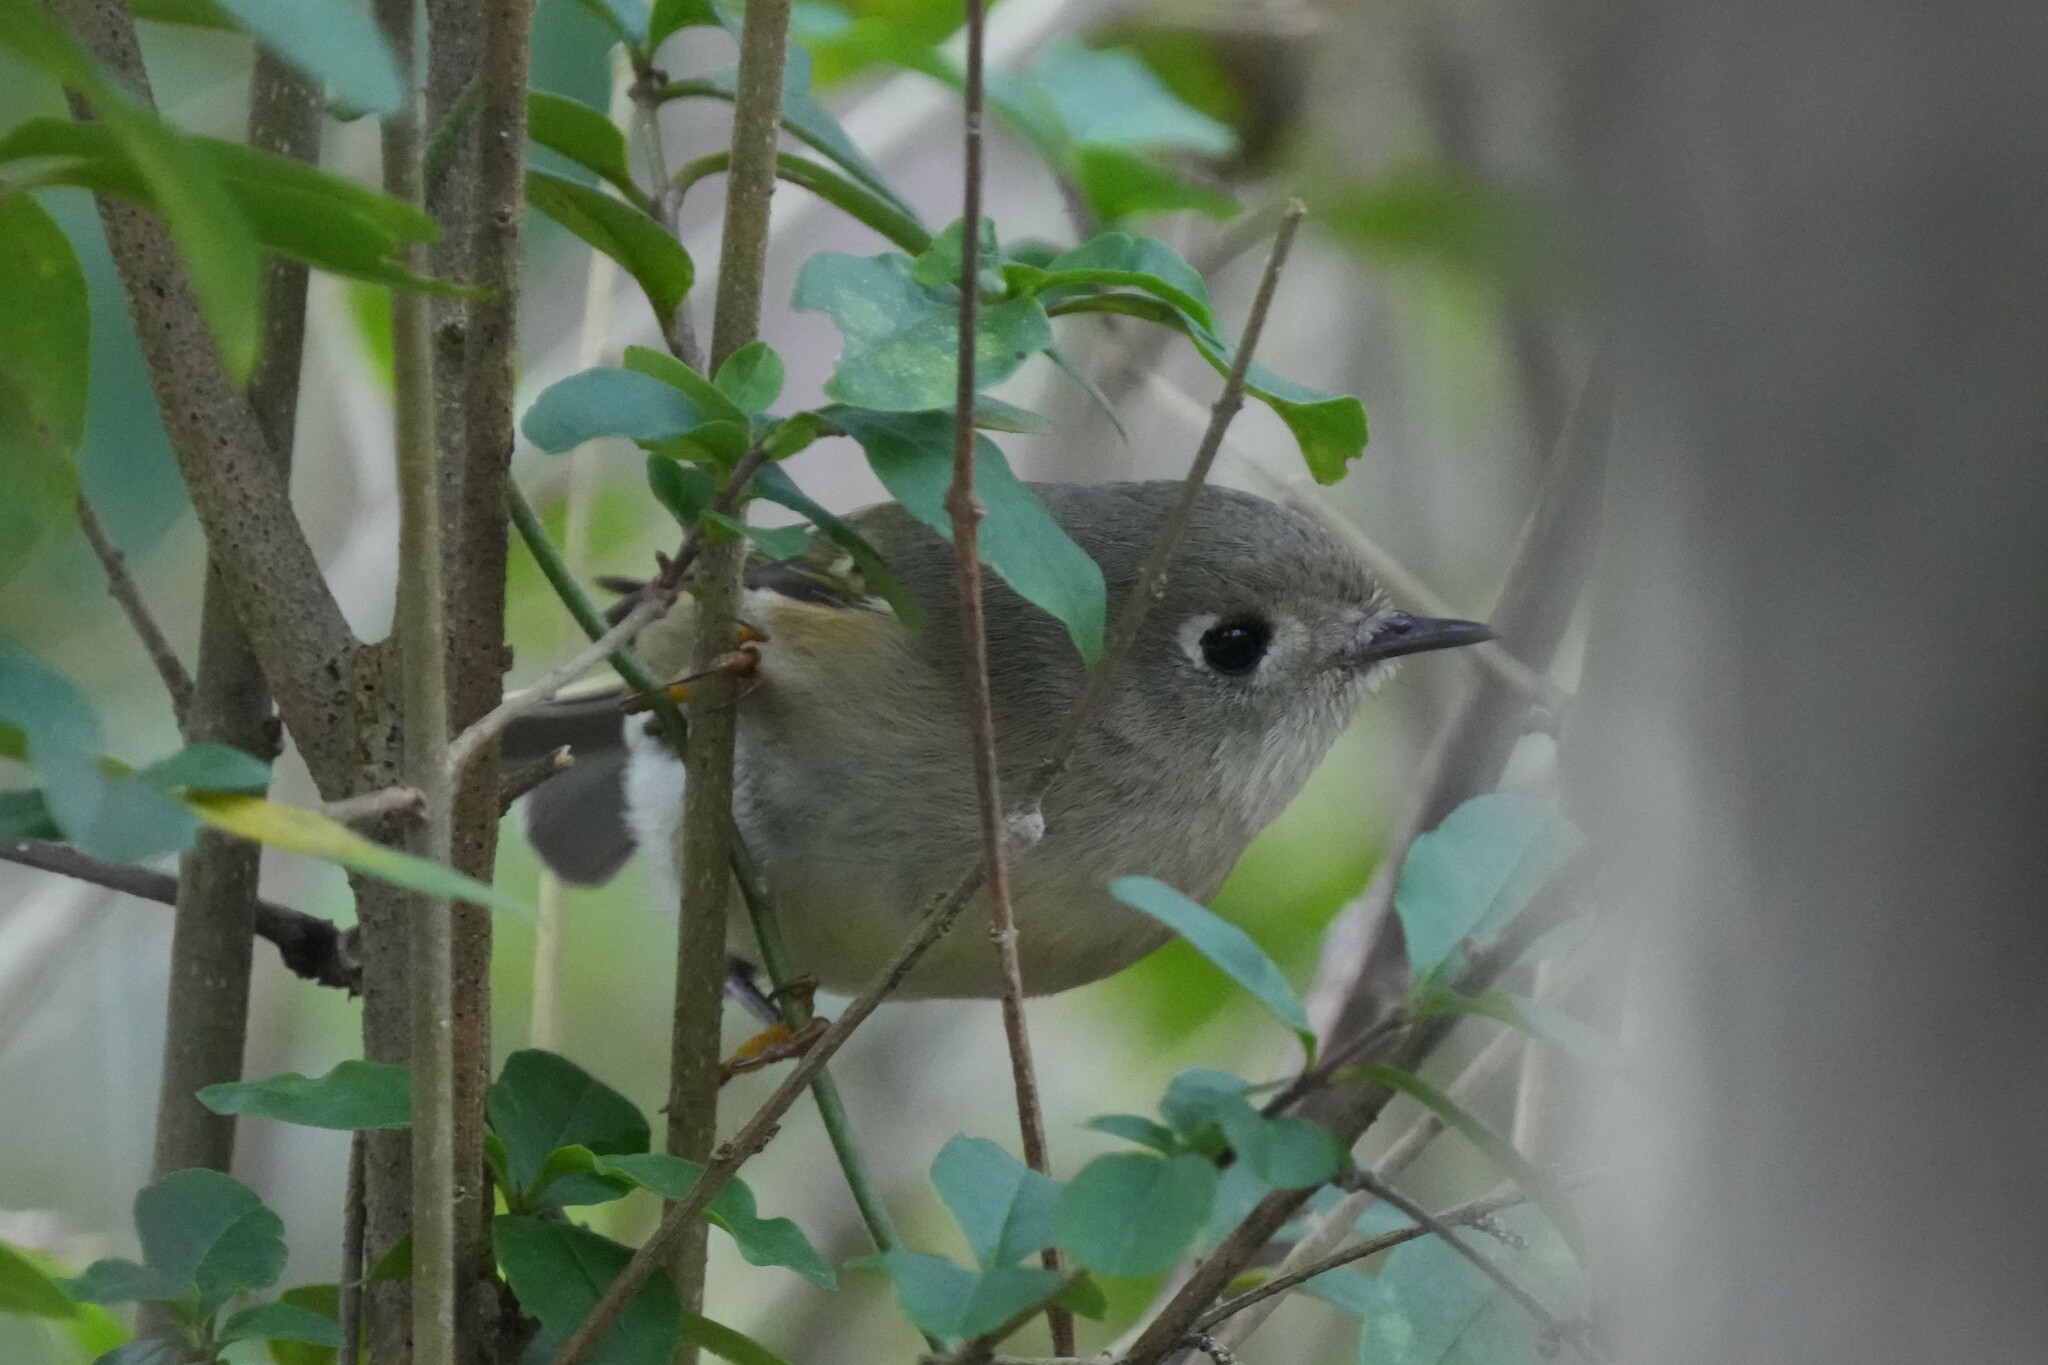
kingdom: Animalia
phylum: Chordata
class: Aves
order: Passeriformes
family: Regulidae
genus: Regulus
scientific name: Regulus calendula
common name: Ruby-crowned kinglet
